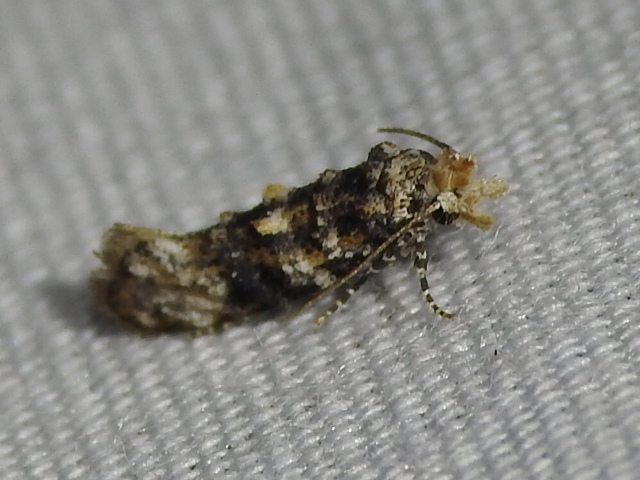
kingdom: Animalia
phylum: Arthropoda
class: Insecta
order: Lepidoptera
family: Tineidae
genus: Xylesthia
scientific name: Xylesthia pruniramiella
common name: Clemens' bark moth
